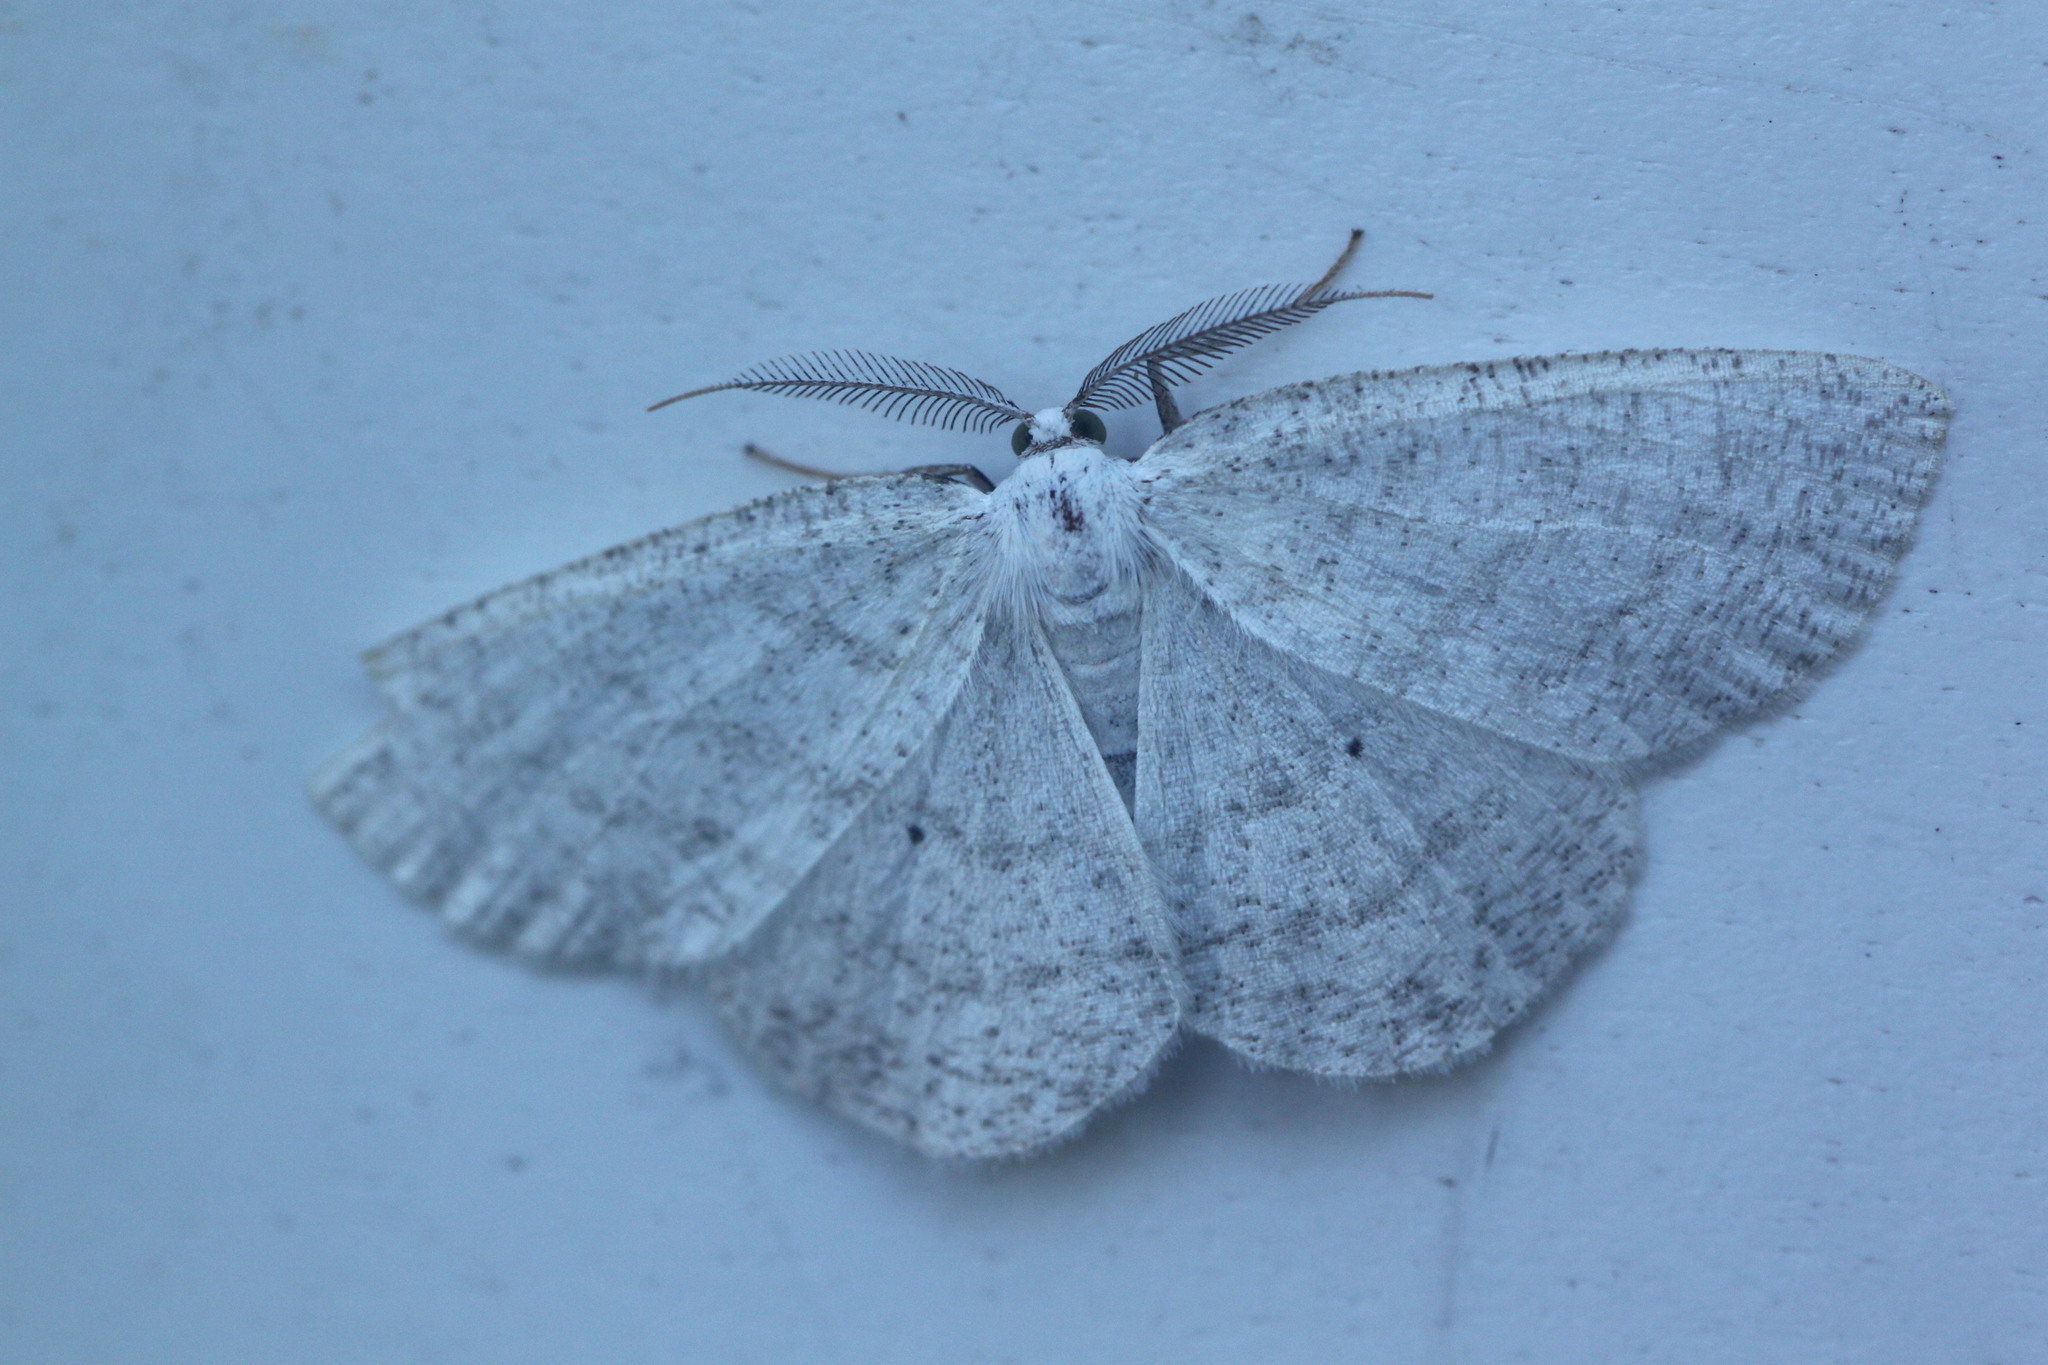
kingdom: Animalia
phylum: Arthropoda
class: Insecta
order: Lepidoptera
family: Geometridae
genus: Cabera
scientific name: Cabera pusaria
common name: Common white wave
